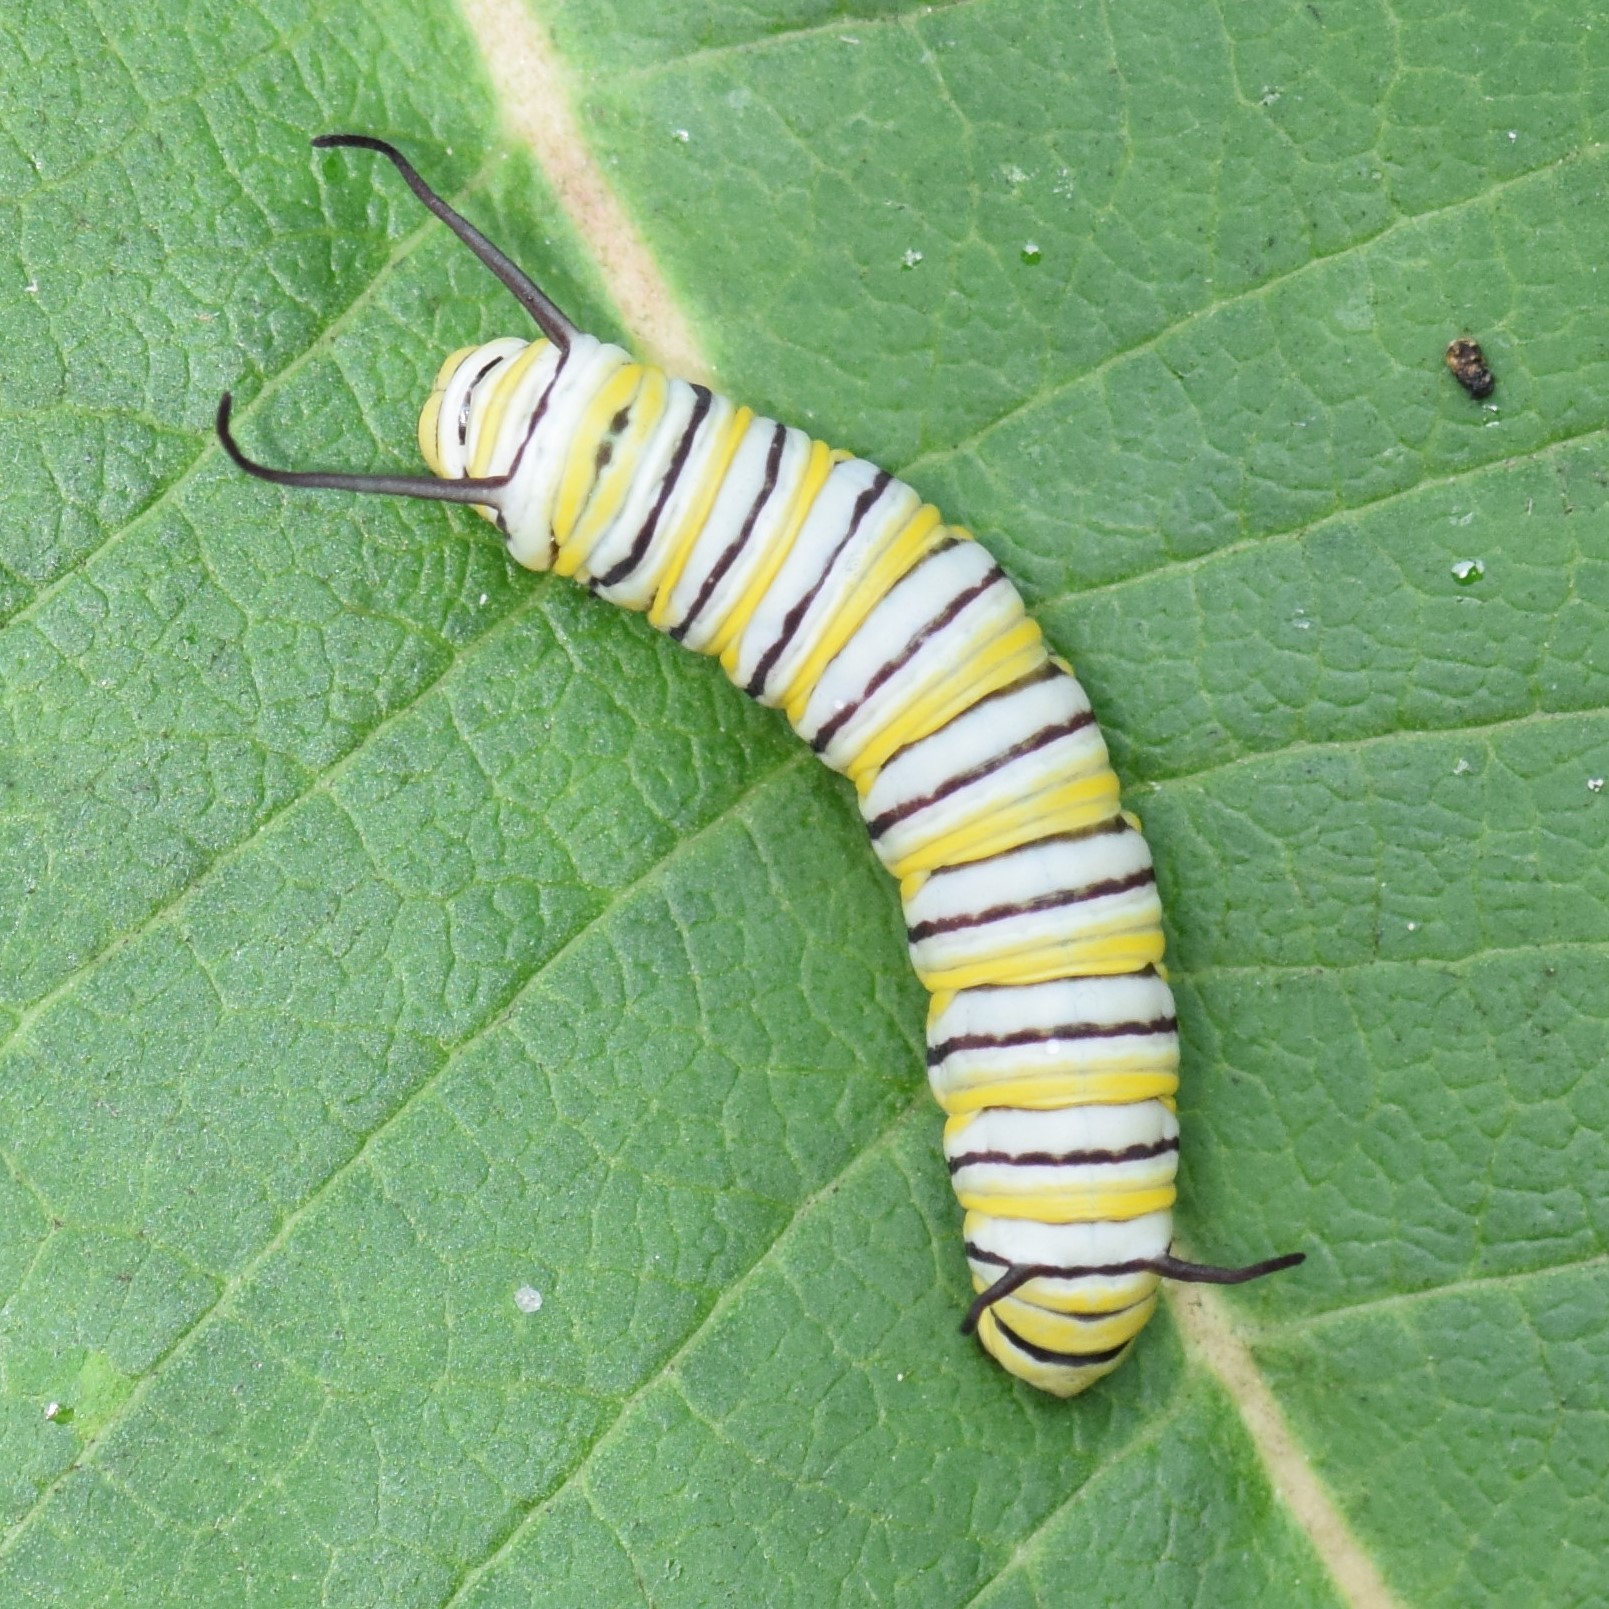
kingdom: Animalia
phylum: Arthropoda
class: Insecta
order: Lepidoptera
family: Nymphalidae
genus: Danaus
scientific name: Danaus plexippus
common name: Monarch
